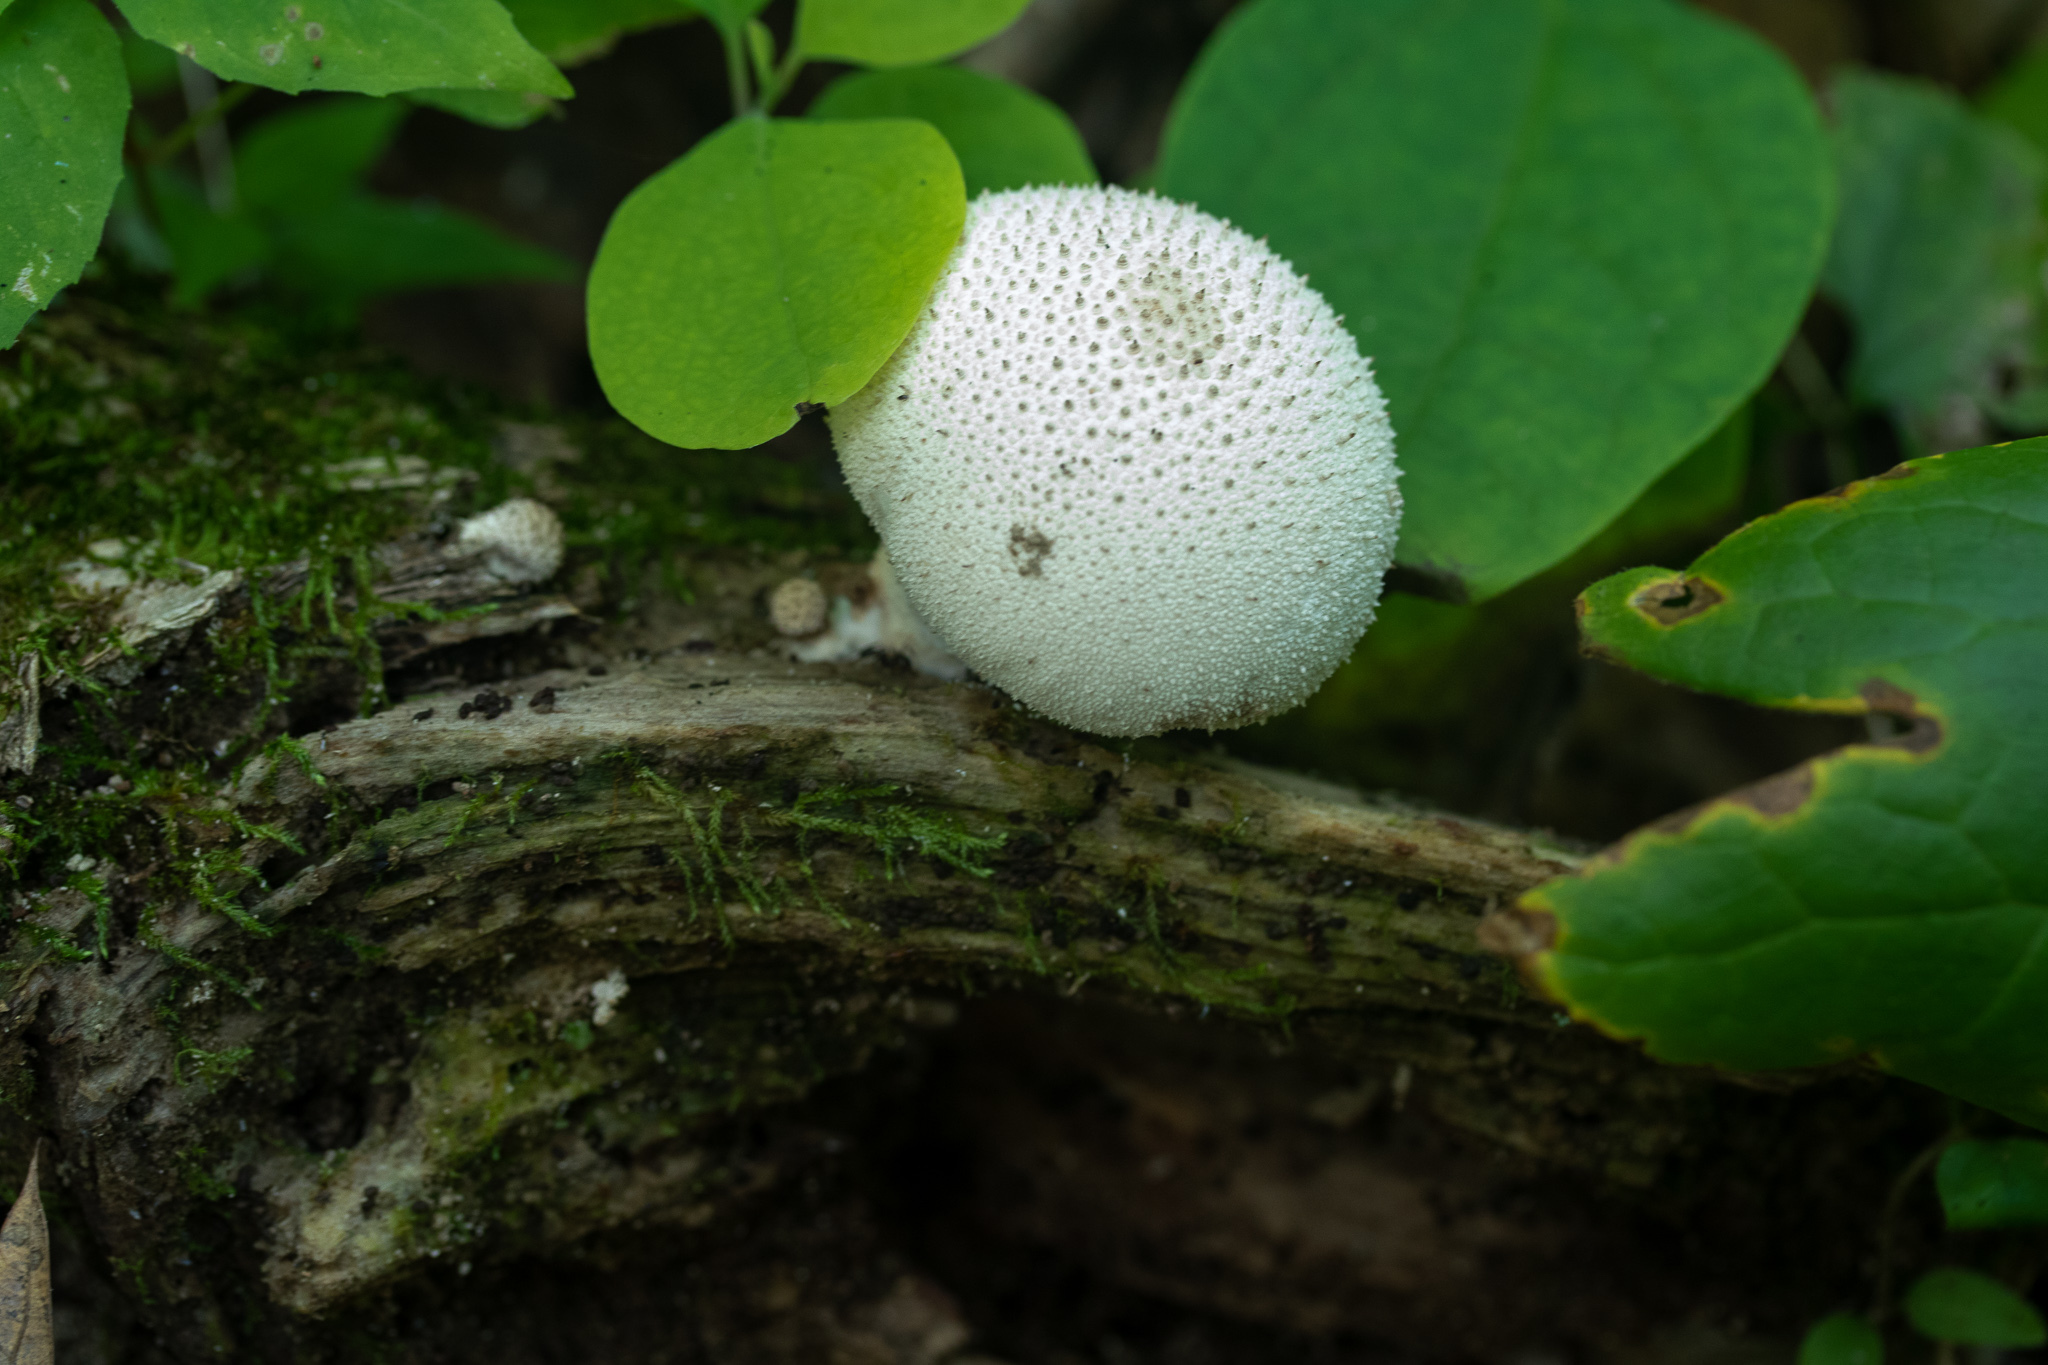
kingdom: Fungi
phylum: Basidiomycota
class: Agaricomycetes
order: Agaricales
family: Lycoperdaceae
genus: Lycoperdon
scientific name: Lycoperdon perlatum
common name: Common puffball
